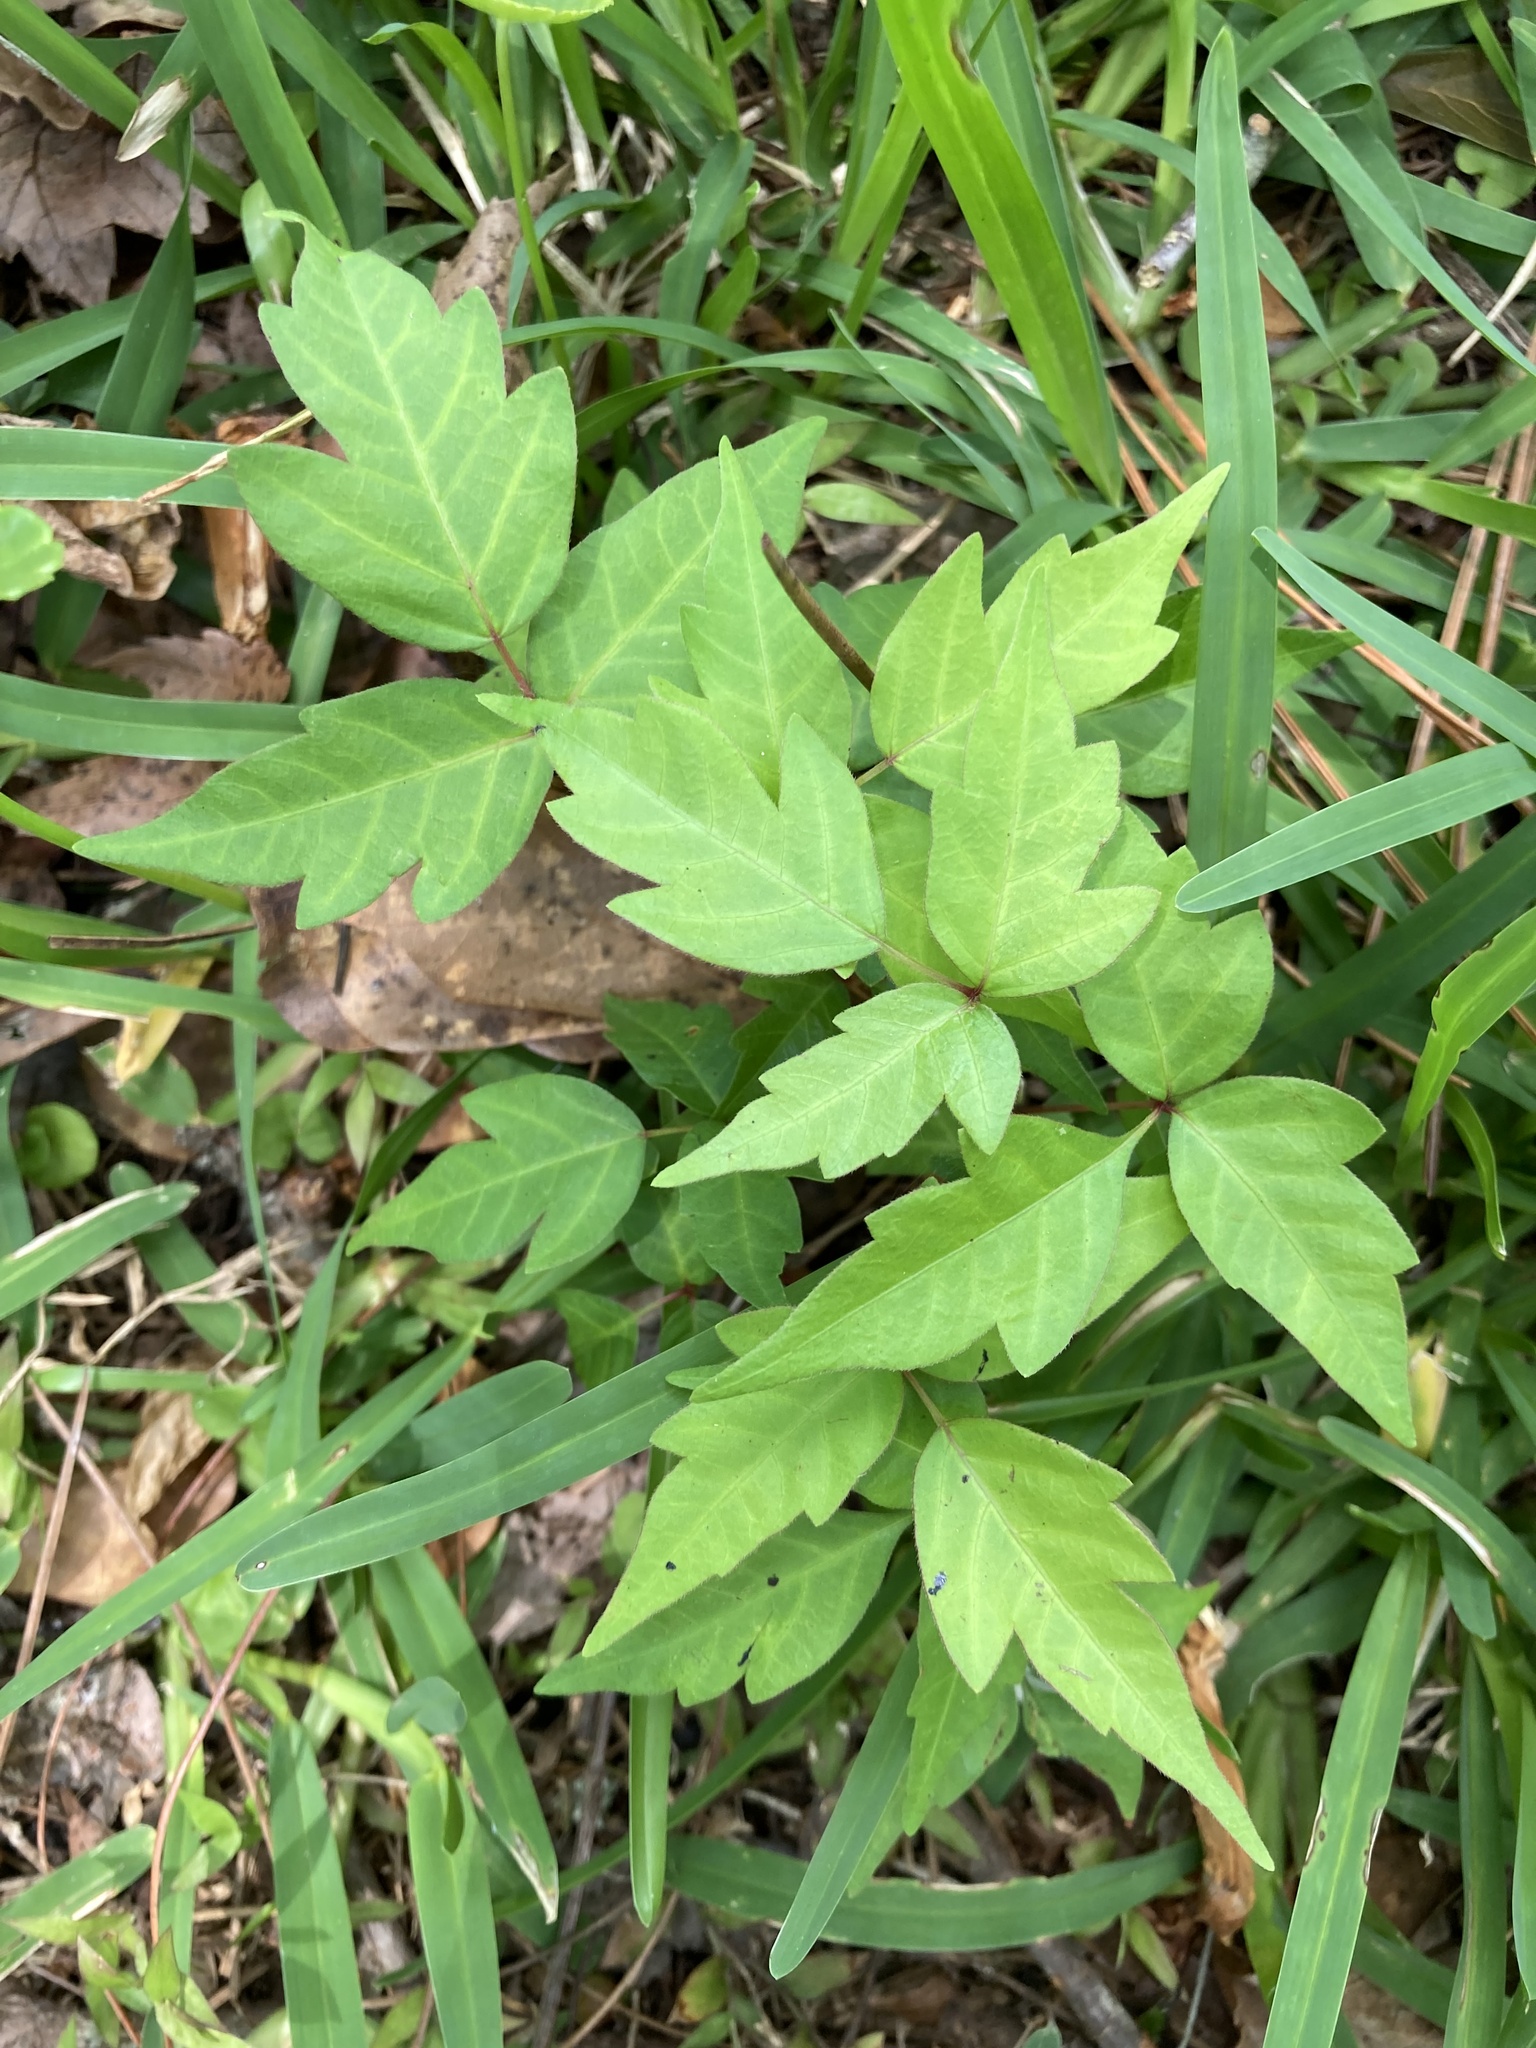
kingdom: Plantae
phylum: Tracheophyta
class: Magnoliopsida
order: Sapindales
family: Anacardiaceae
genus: Toxicodendron
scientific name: Toxicodendron radicans
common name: Poison ivy
